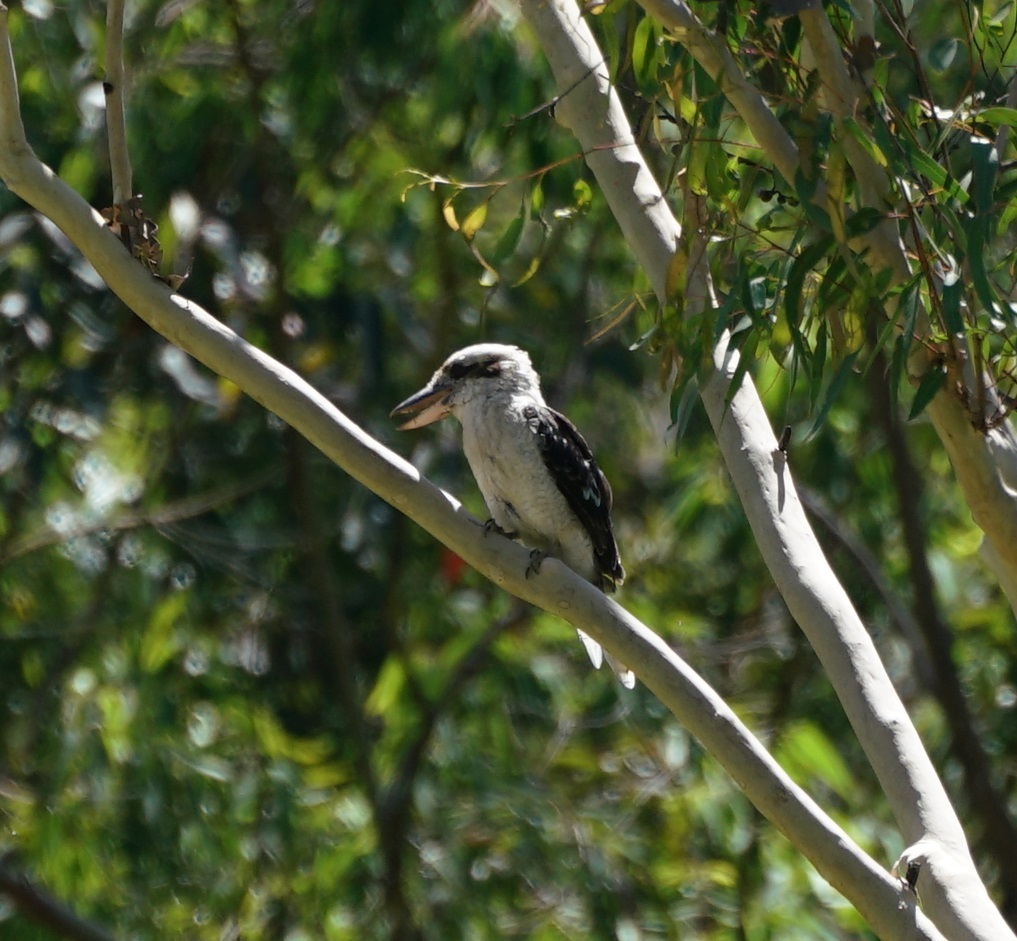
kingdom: Animalia
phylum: Chordata
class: Aves
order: Coraciiformes
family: Alcedinidae
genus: Dacelo
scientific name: Dacelo novaeguineae
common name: Laughing kookaburra
